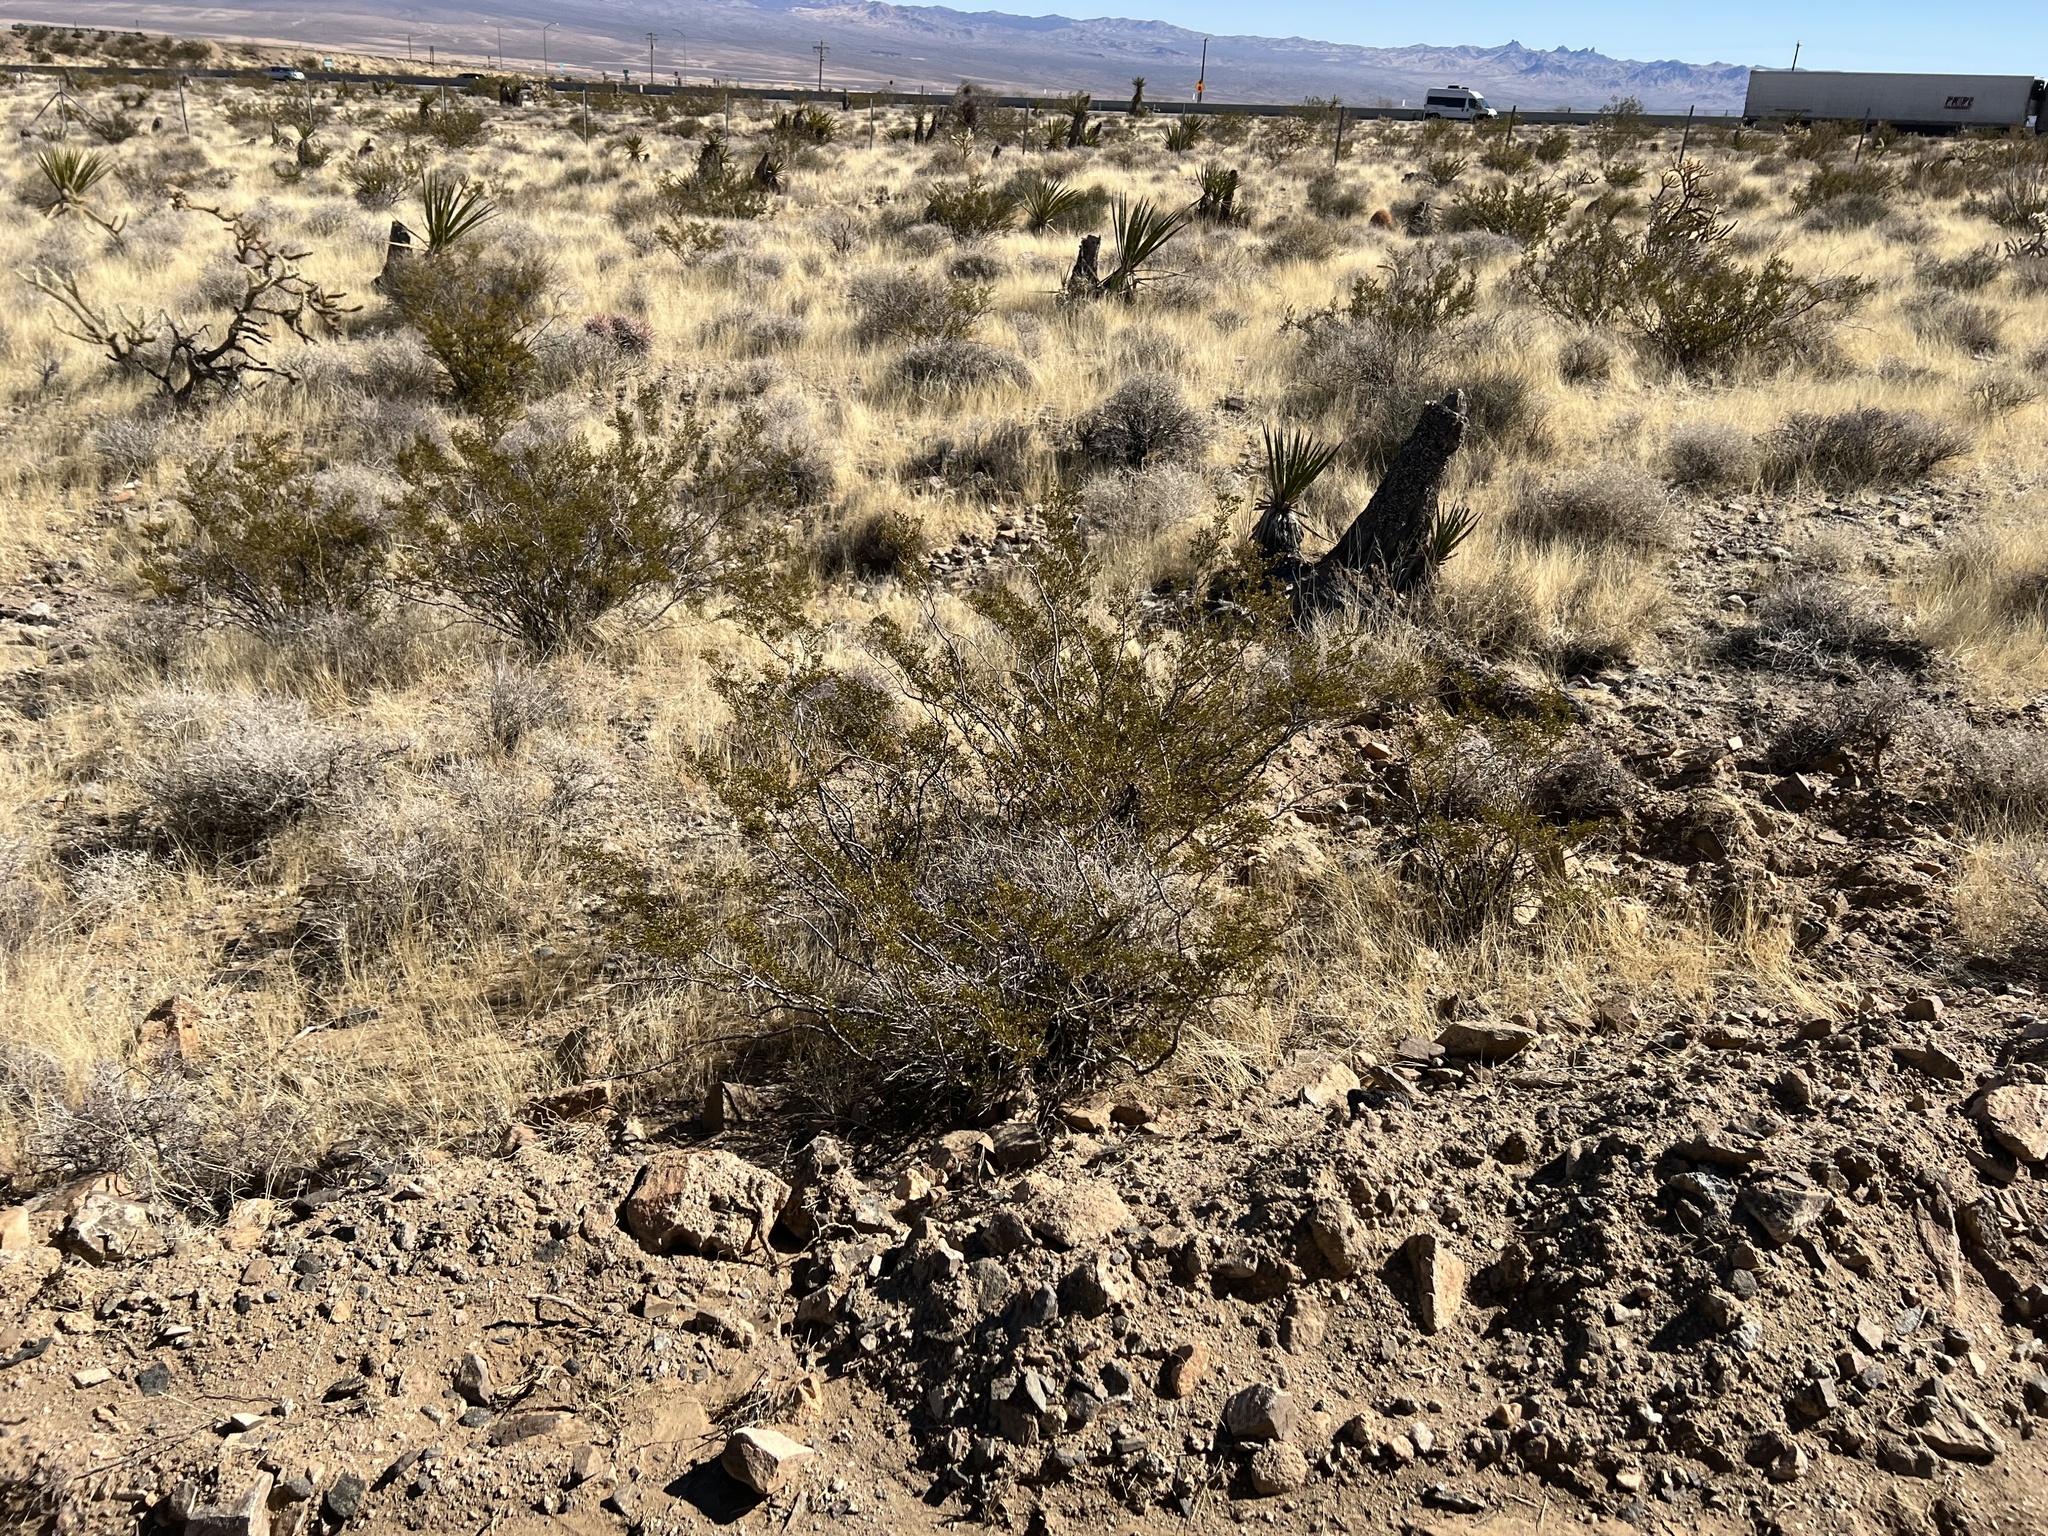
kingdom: Plantae
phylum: Tracheophyta
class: Magnoliopsida
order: Zygophyllales
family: Zygophyllaceae
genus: Larrea
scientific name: Larrea tridentata
